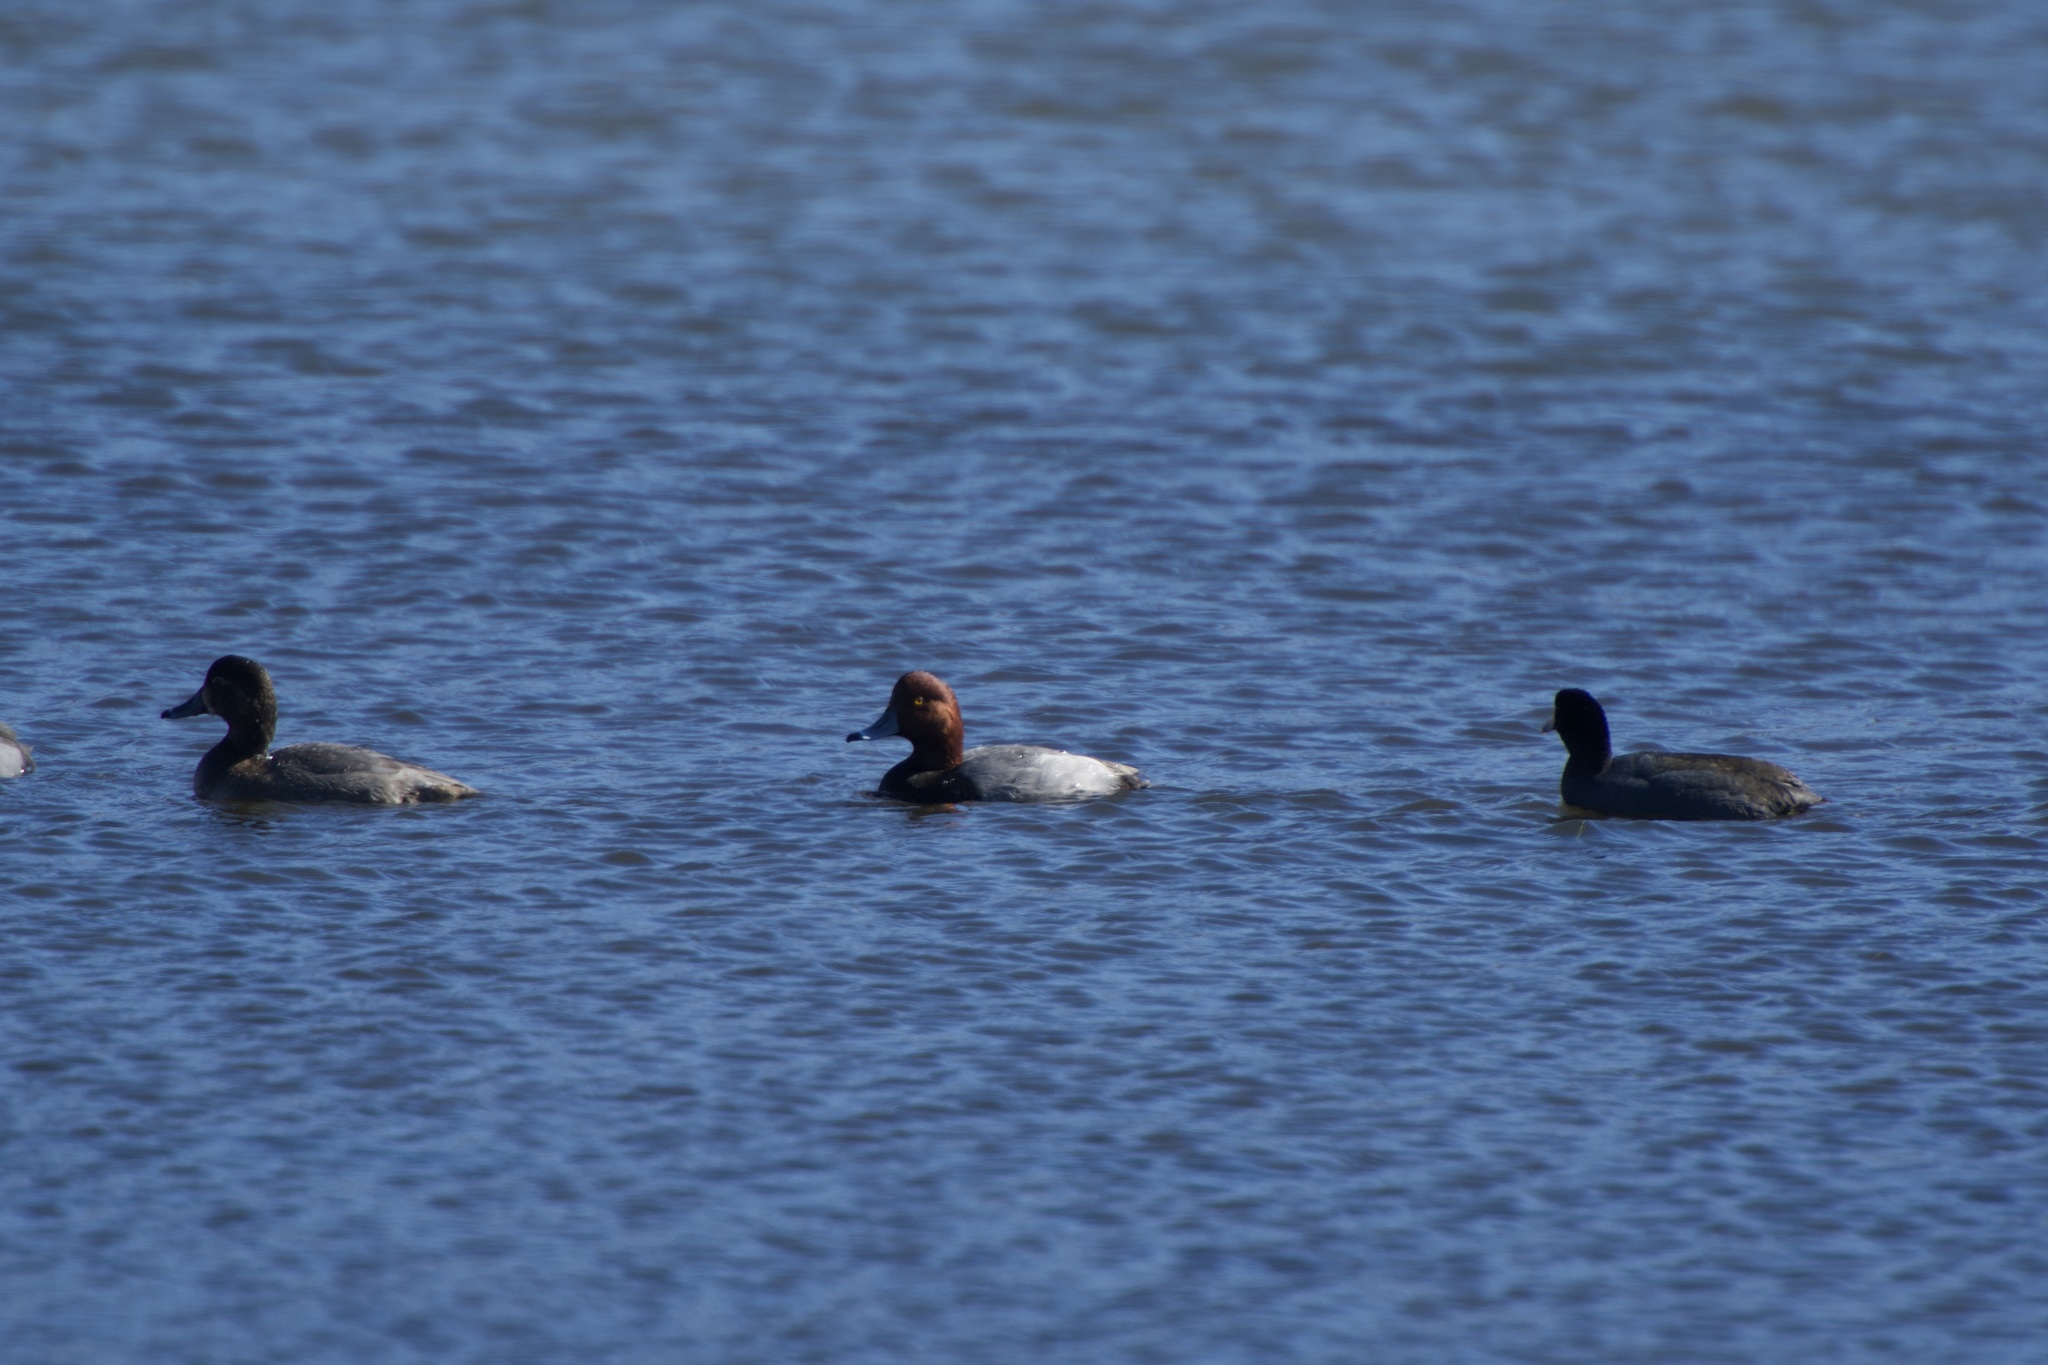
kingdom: Animalia
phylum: Chordata
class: Aves
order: Anseriformes
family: Anatidae
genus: Aythya
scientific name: Aythya americana
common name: Redhead
